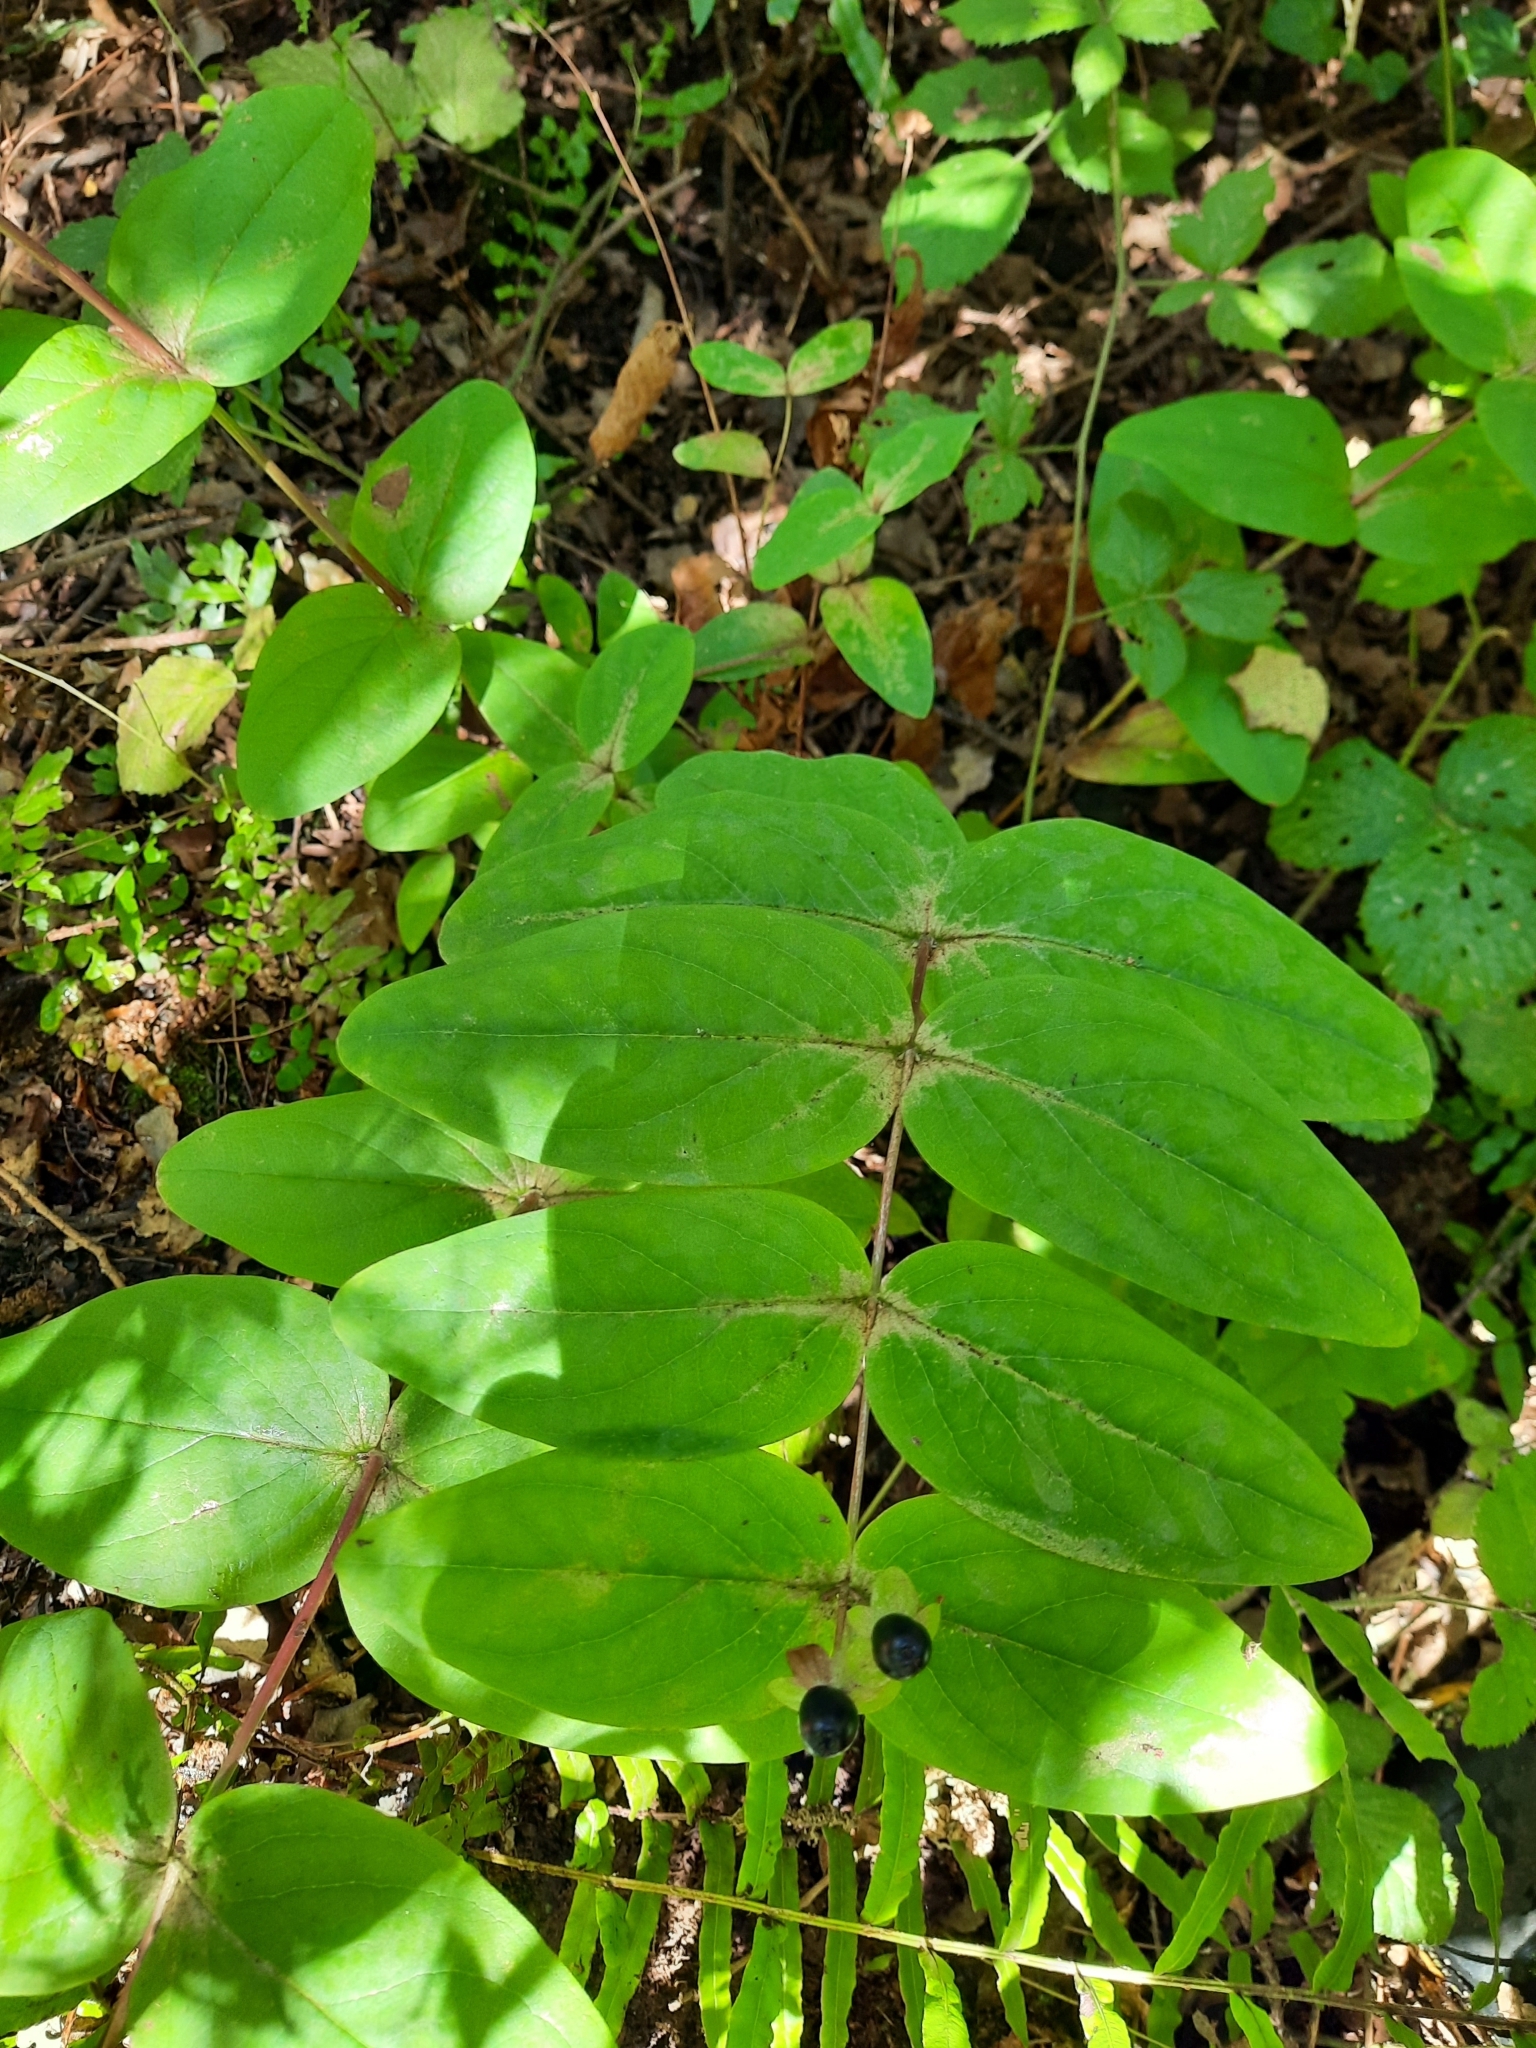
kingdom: Plantae
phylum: Tracheophyta
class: Magnoliopsida
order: Malpighiales
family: Hypericaceae
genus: Hypericum
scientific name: Hypericum androsaemum
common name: Sweet-amber
